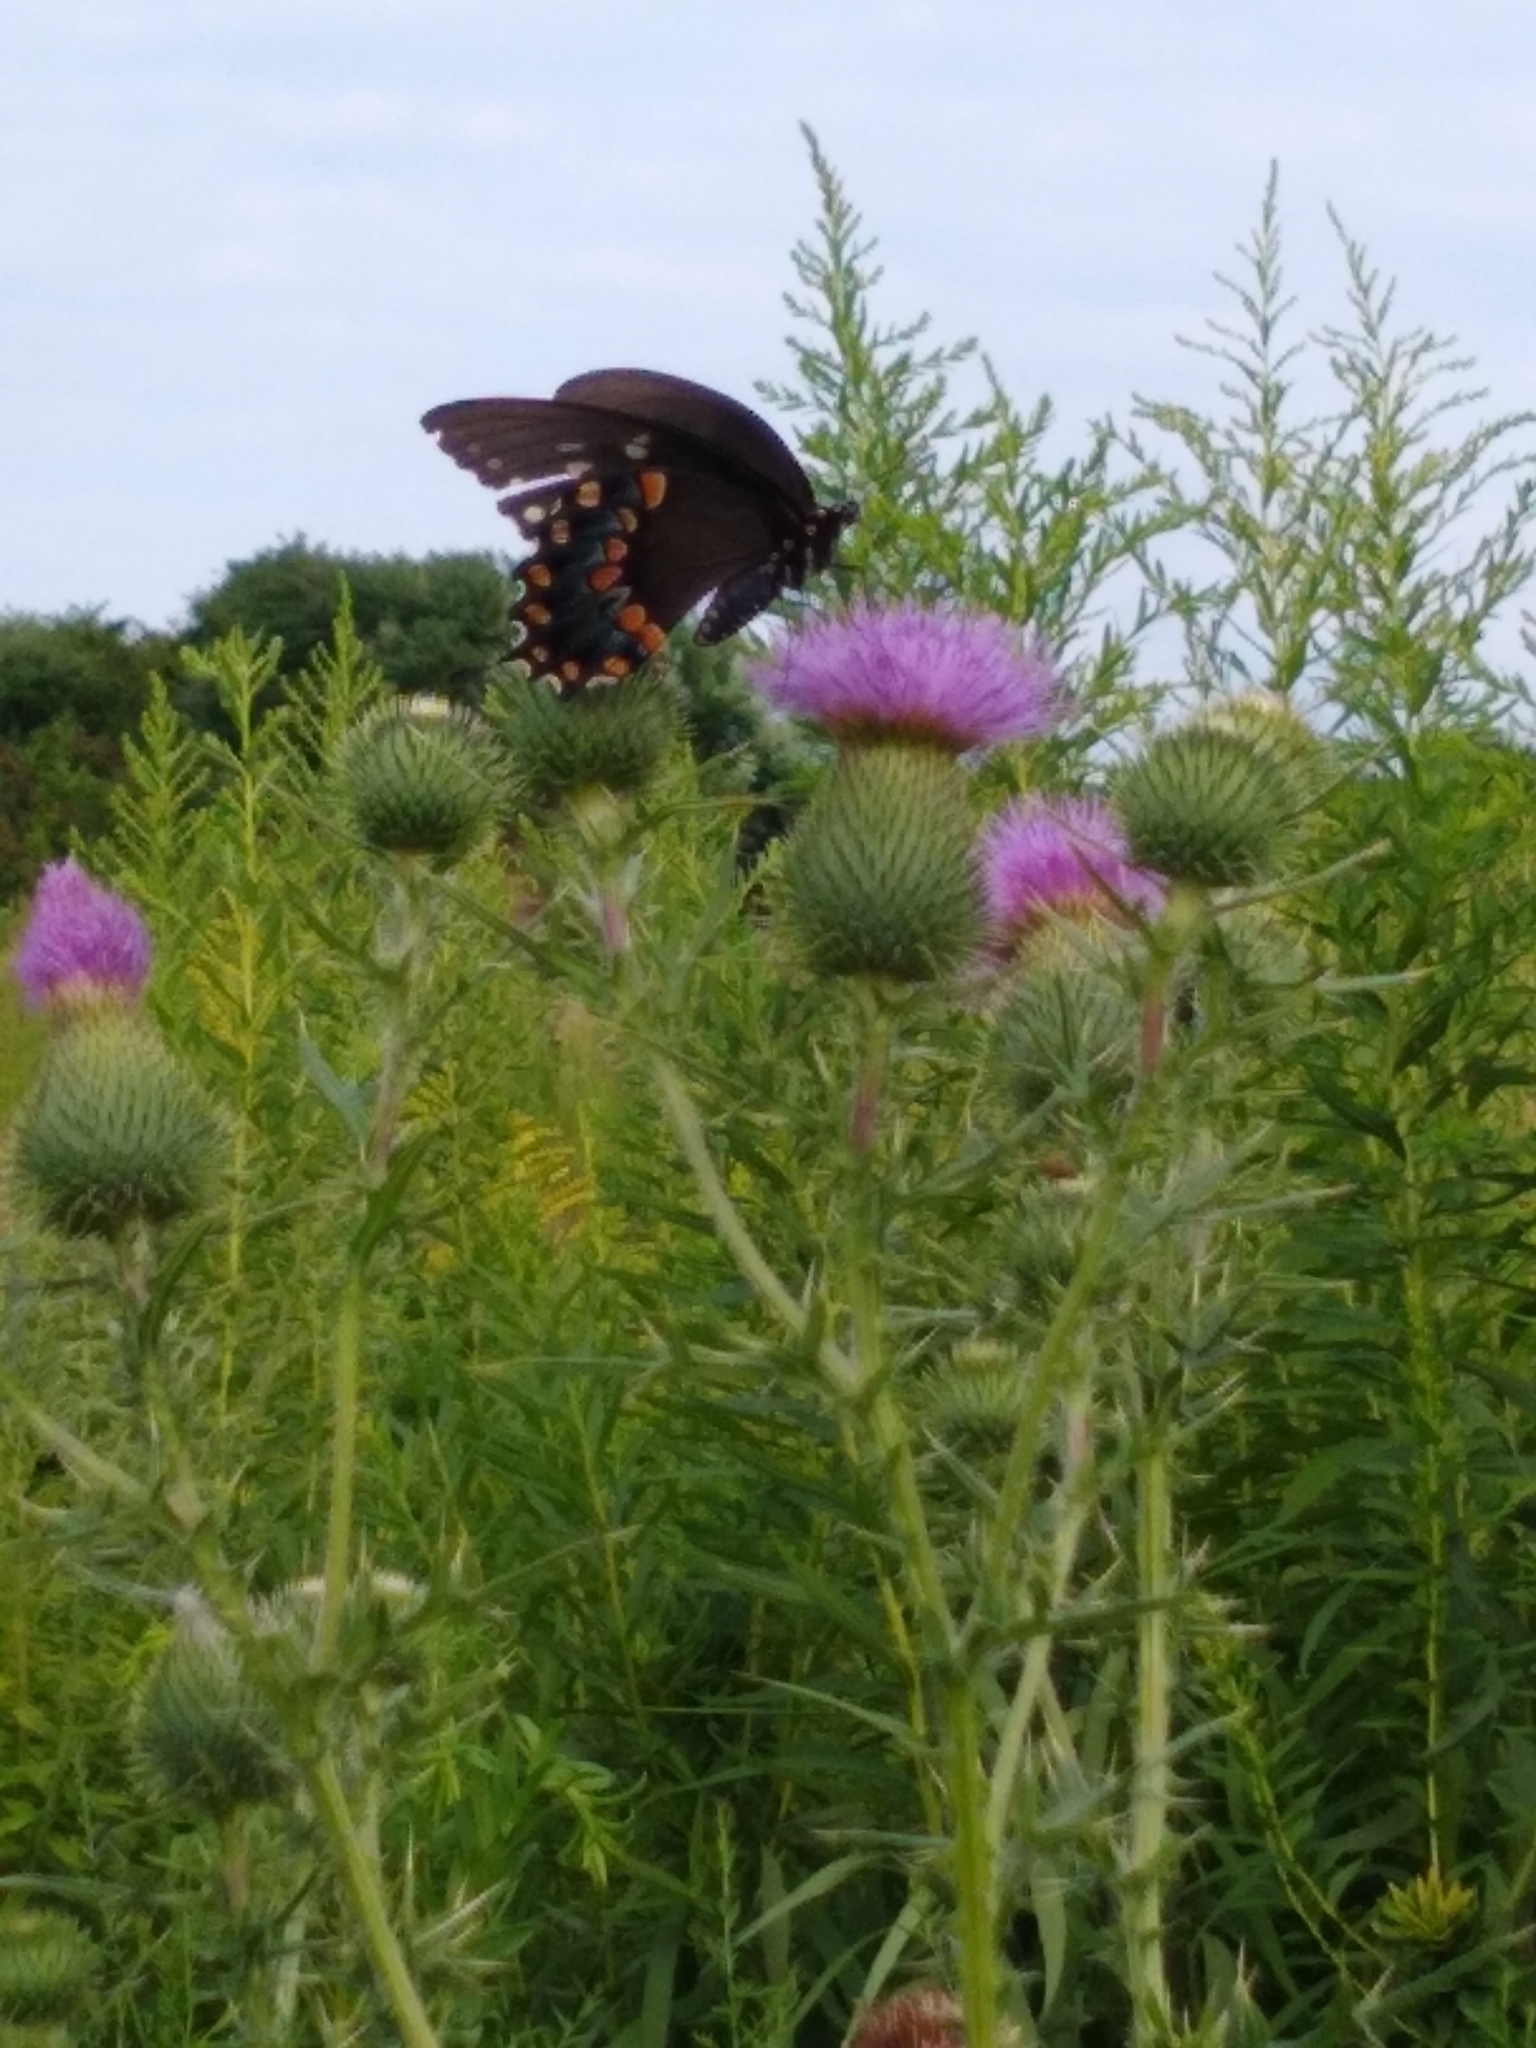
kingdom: Animalia
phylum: Arthropoda
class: Insecta
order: Lepidoptera
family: Papilionidae
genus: Papilio
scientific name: Papilio troilus
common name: Spicebush swallowtail
